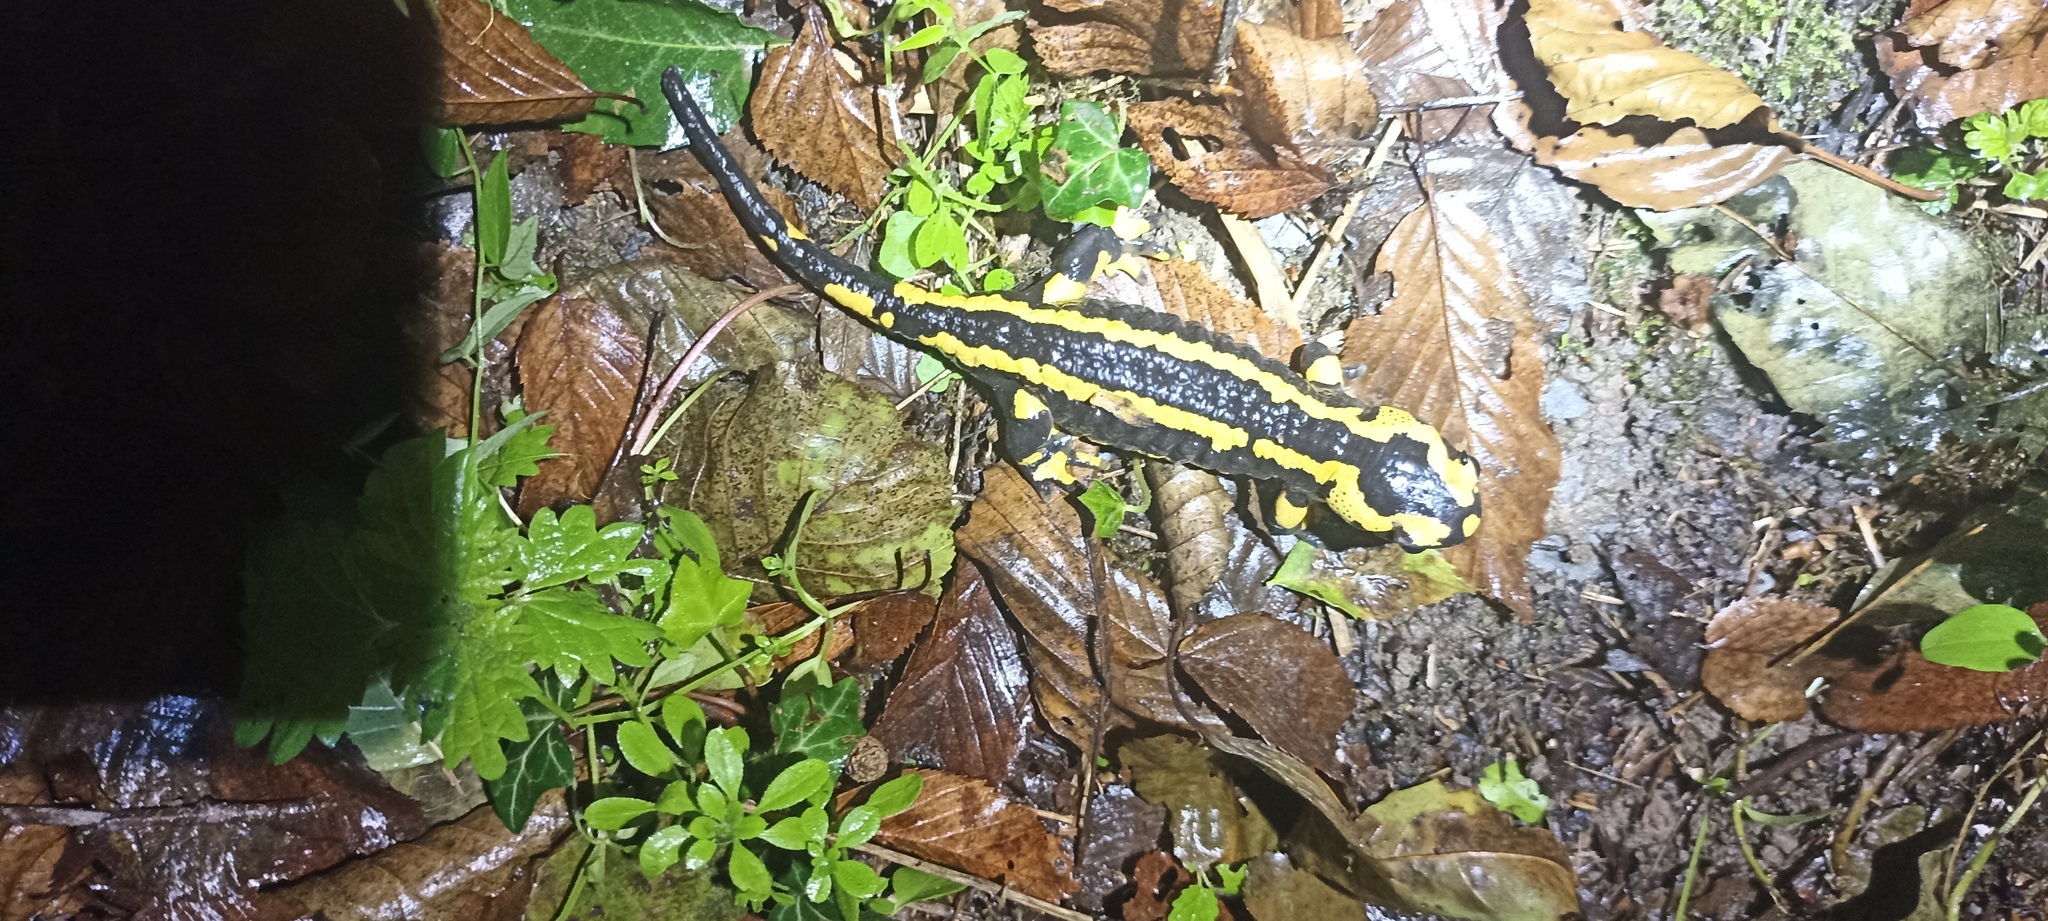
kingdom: Animalia
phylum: Chordata
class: Amphibia
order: Caudata
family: Salamandridae
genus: Salamandra
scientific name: Salamandra salamandra
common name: Fire salamander
